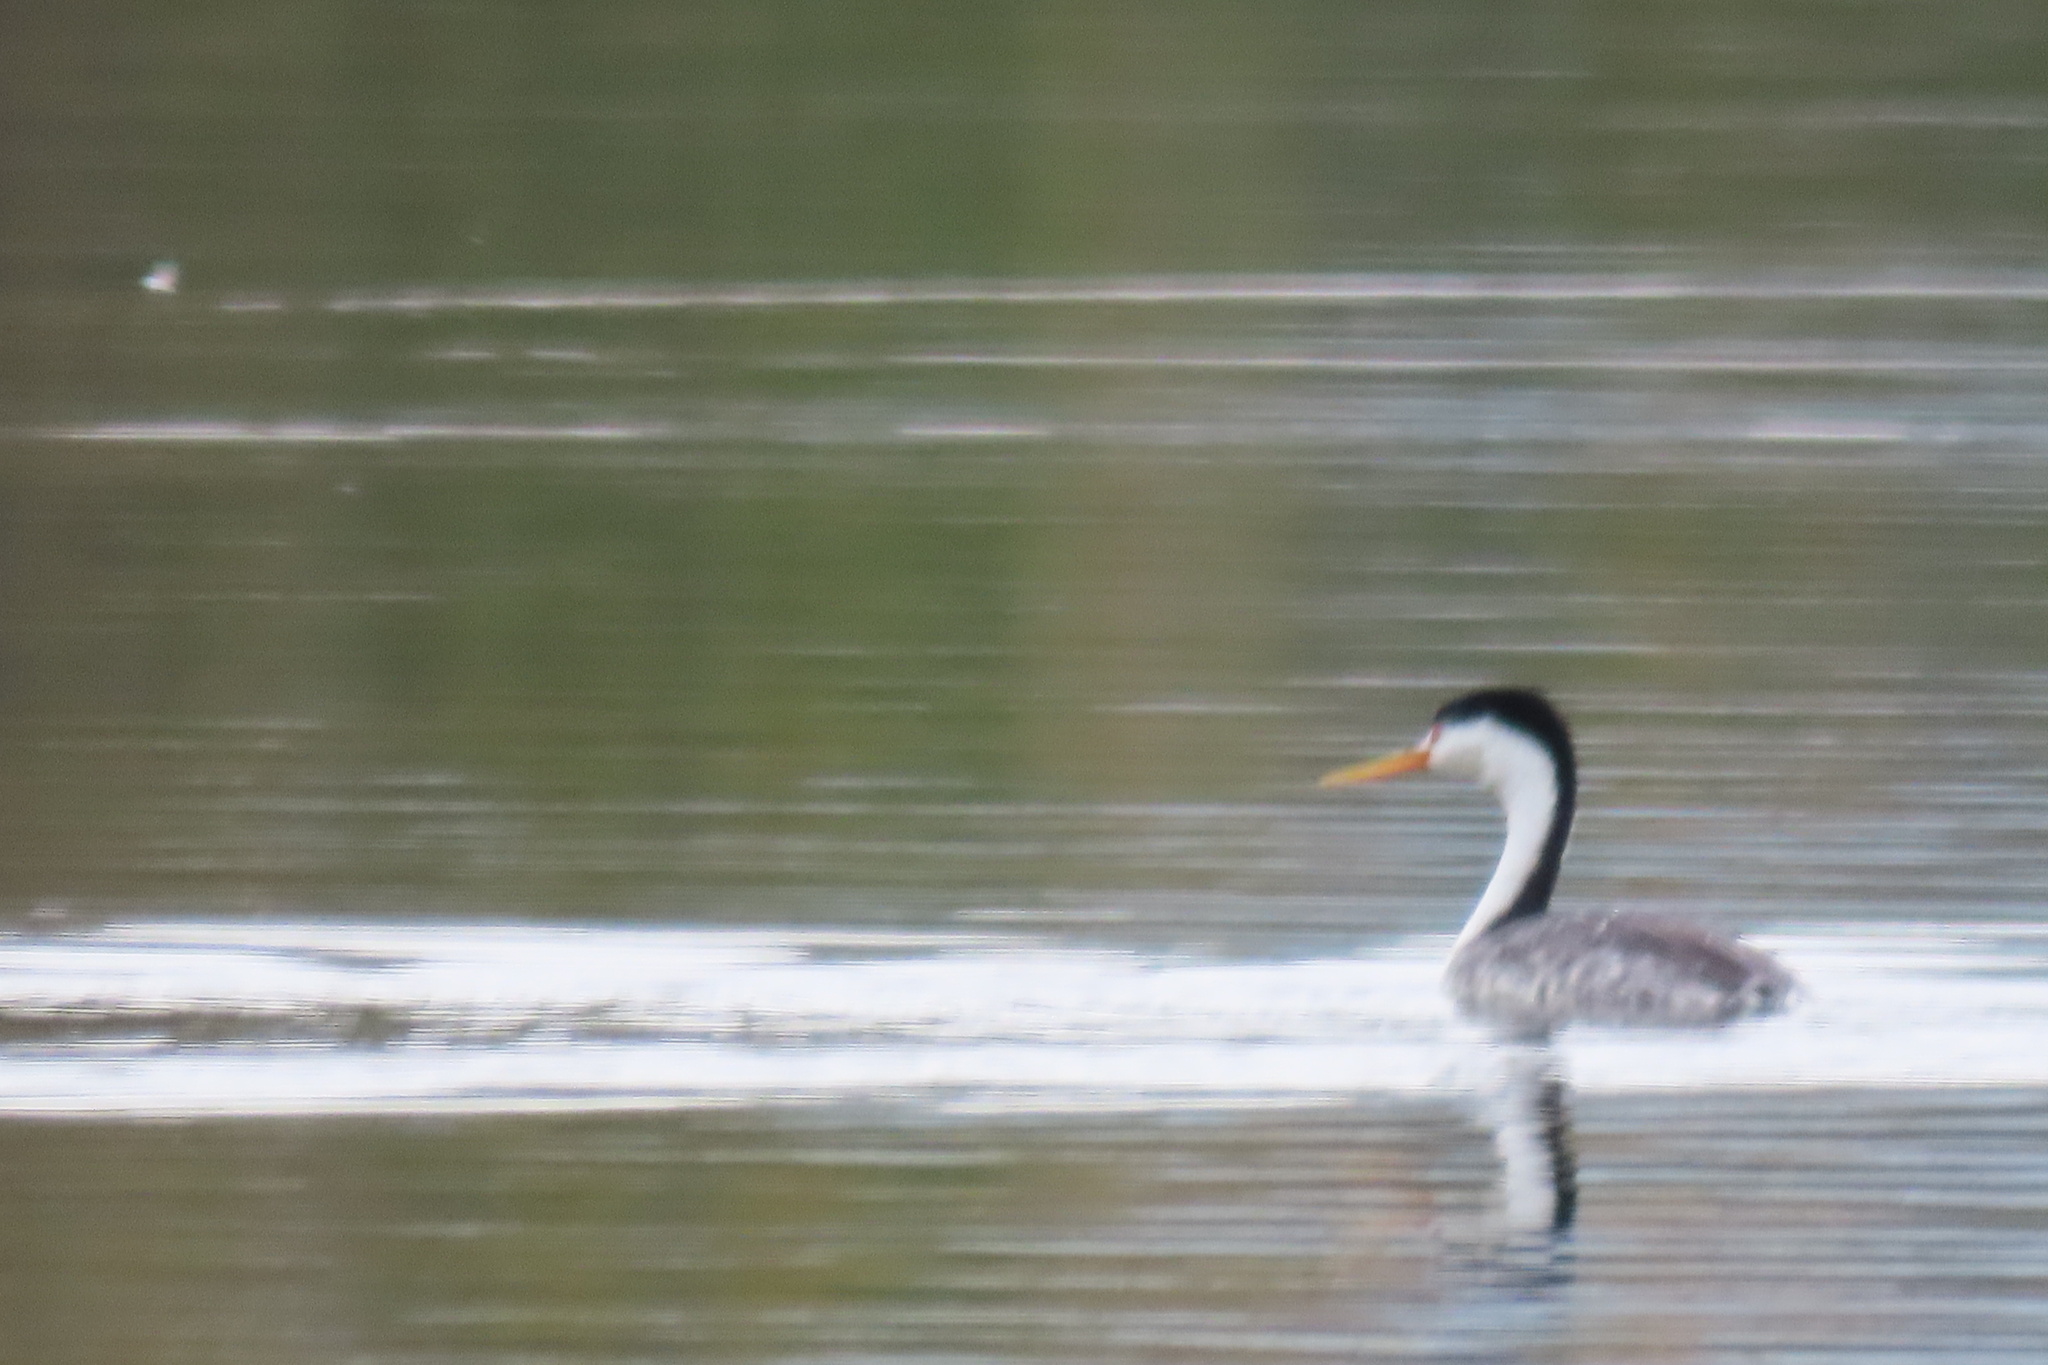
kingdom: Animalia
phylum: Chordata
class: Aves
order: Podicipediformes
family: Podicipedidae
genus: Aechmophorus
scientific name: Aechmophorus clarkii
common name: Clark's grebe
